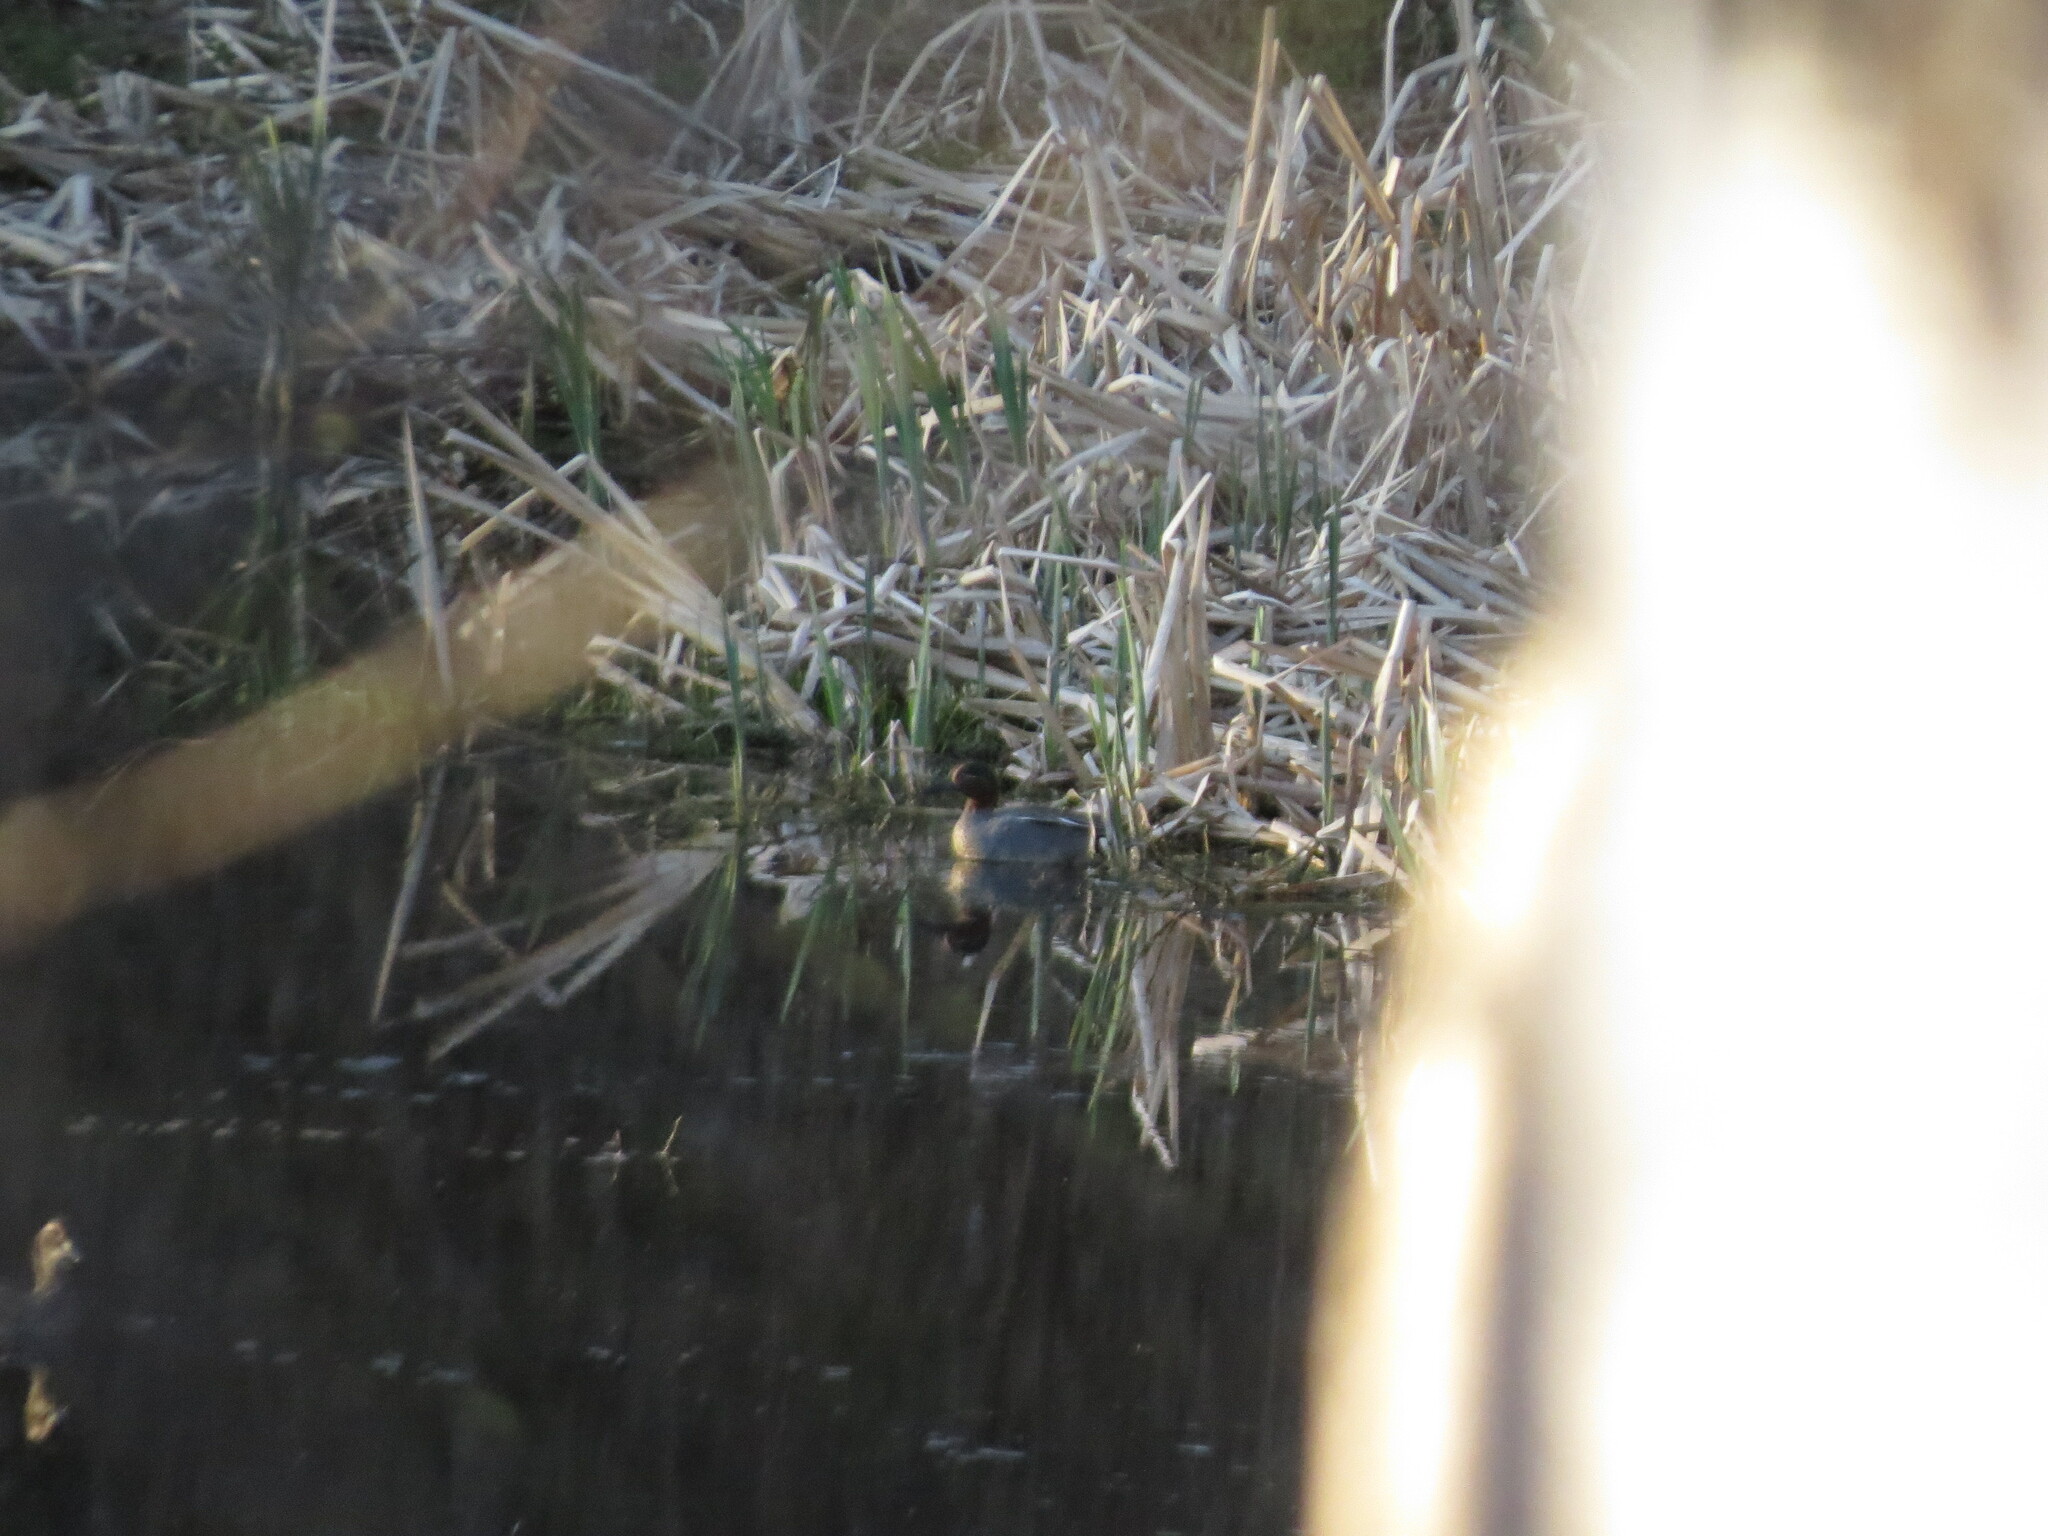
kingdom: Animalia
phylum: Chordata
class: Aves
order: Anseriformes
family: Anatidae
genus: Anas
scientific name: Anas crecca
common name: Eurasian teal
